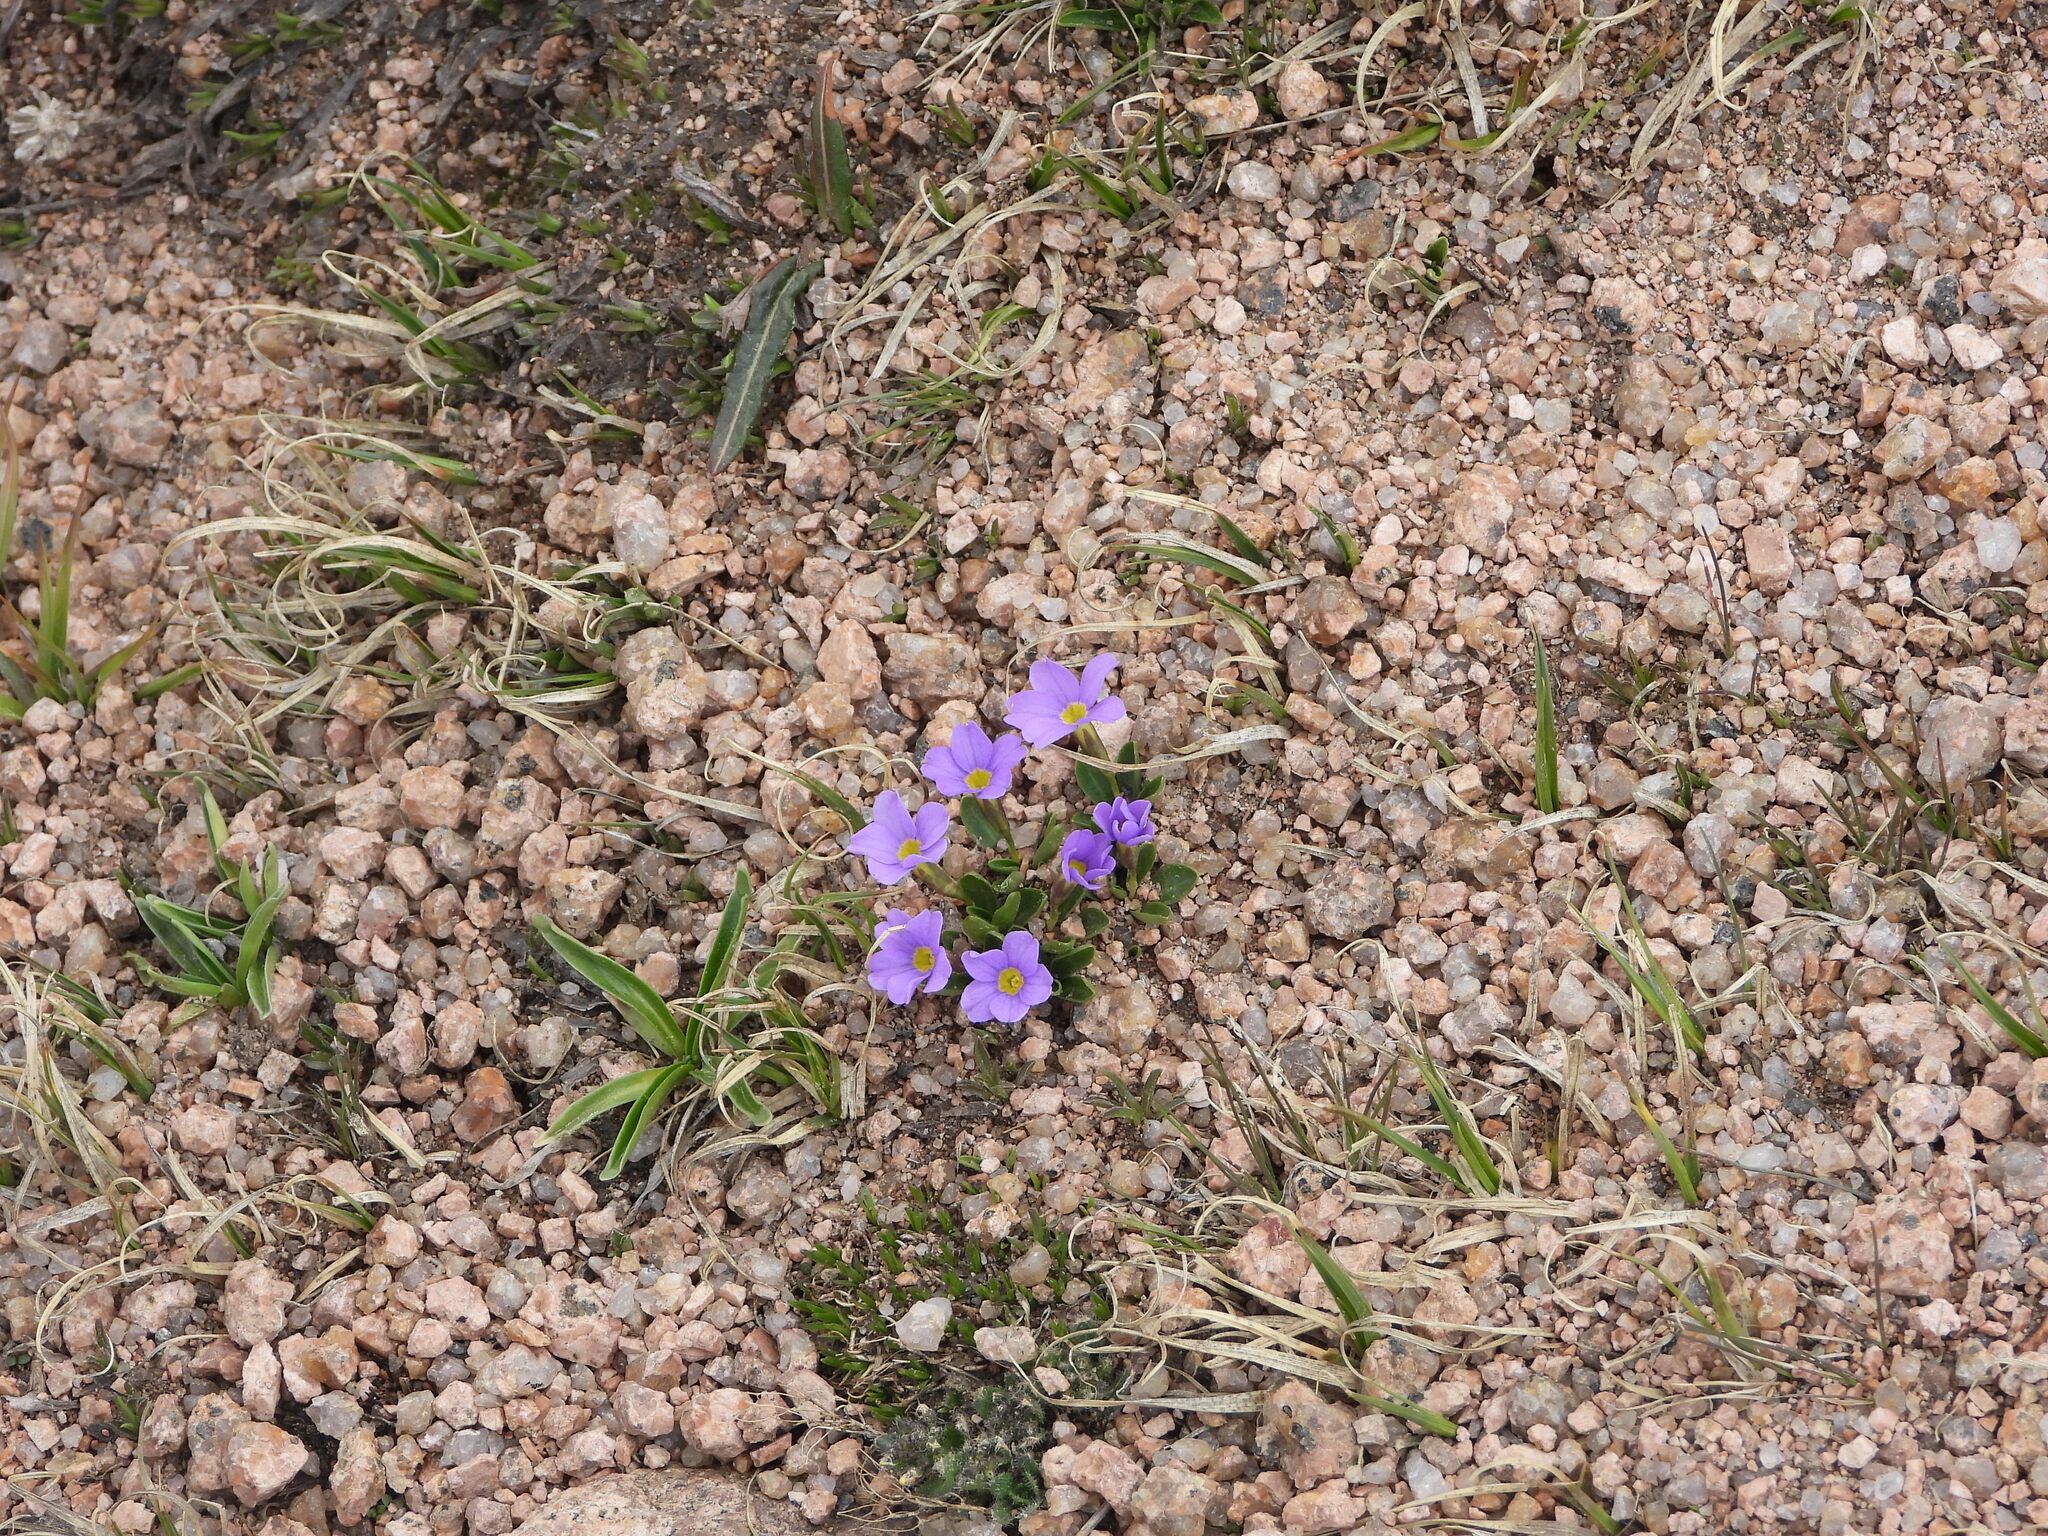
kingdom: Plantae
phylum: Tracheophyta
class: Magnoliopsida
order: Ericales
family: Primulaceae
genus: Primula
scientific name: Primula angustifolia
